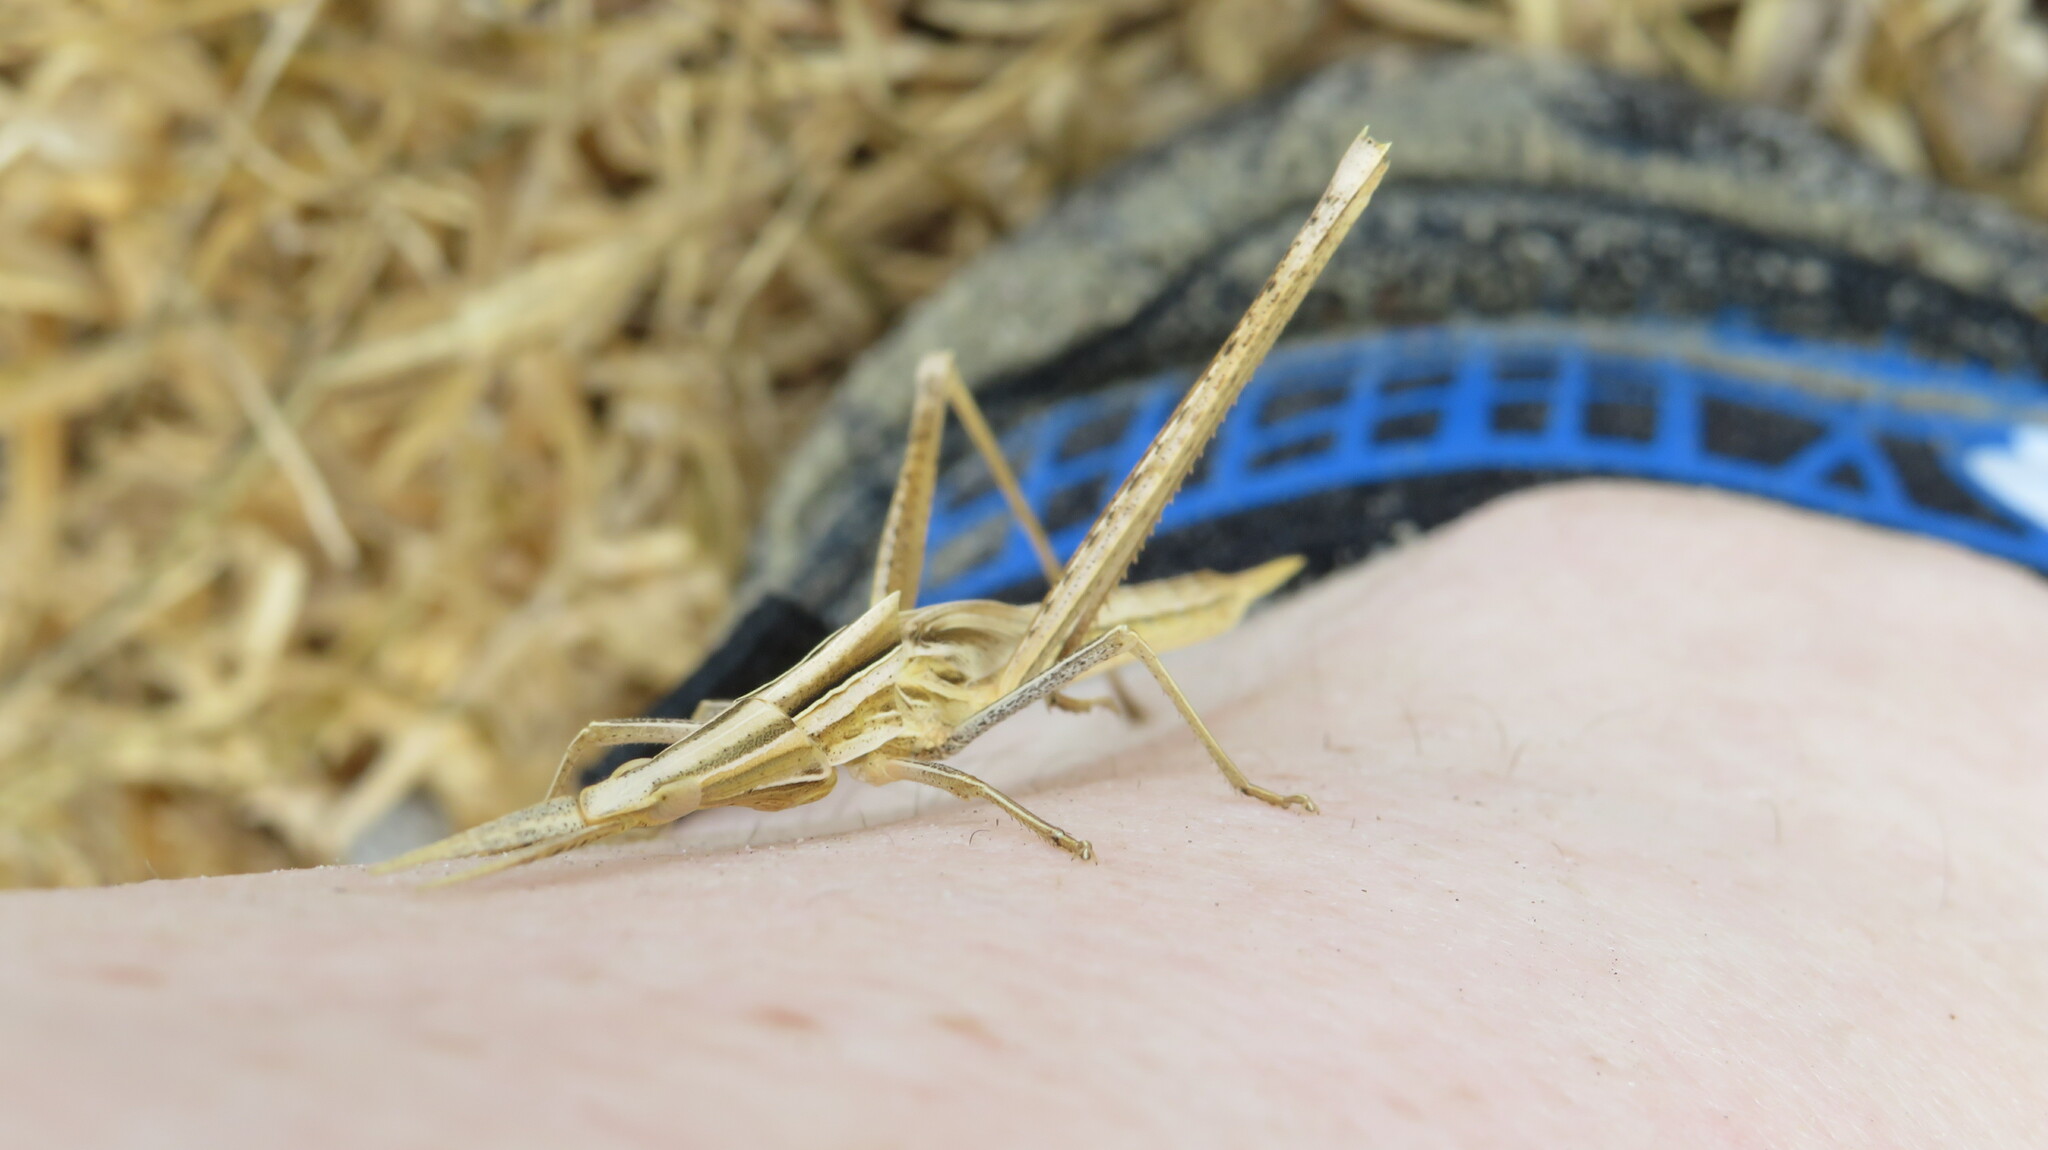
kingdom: Animalia
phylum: Arthropoda
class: Insecta
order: Orthoptera
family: Acrididae
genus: Acrida
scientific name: Acrida cinerea
